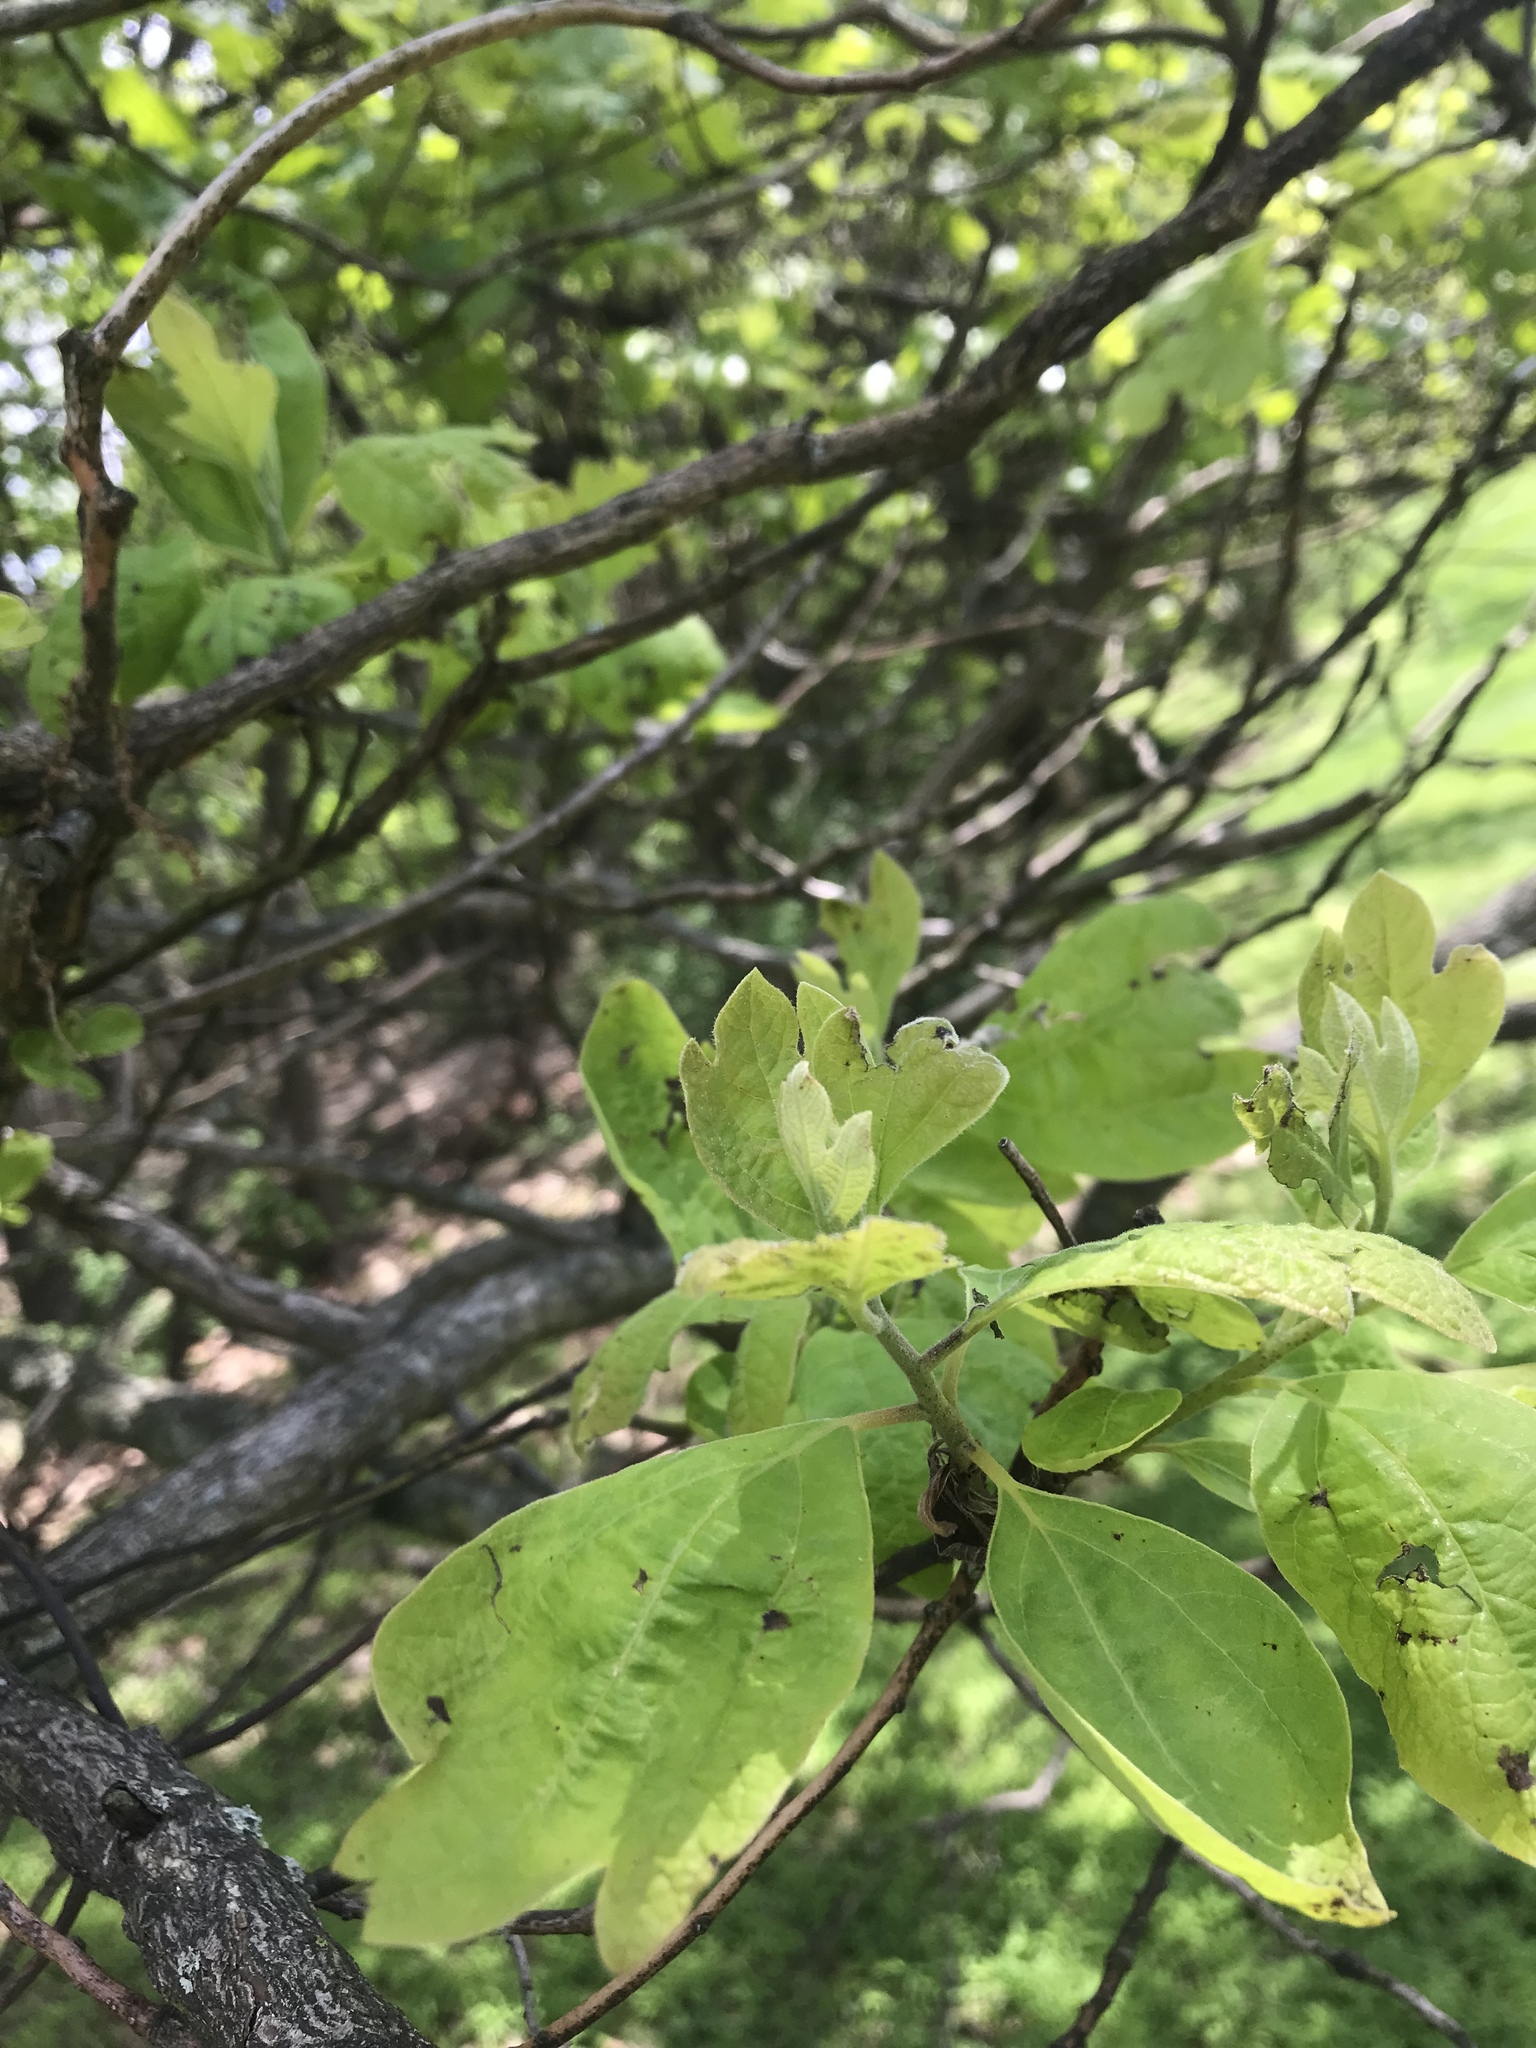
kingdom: Plantae
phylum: Tracheophyta
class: Magnoliopsida
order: Laurales
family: Lauraceae
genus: Sassafras
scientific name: Sassafras albidum
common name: Sassafras
